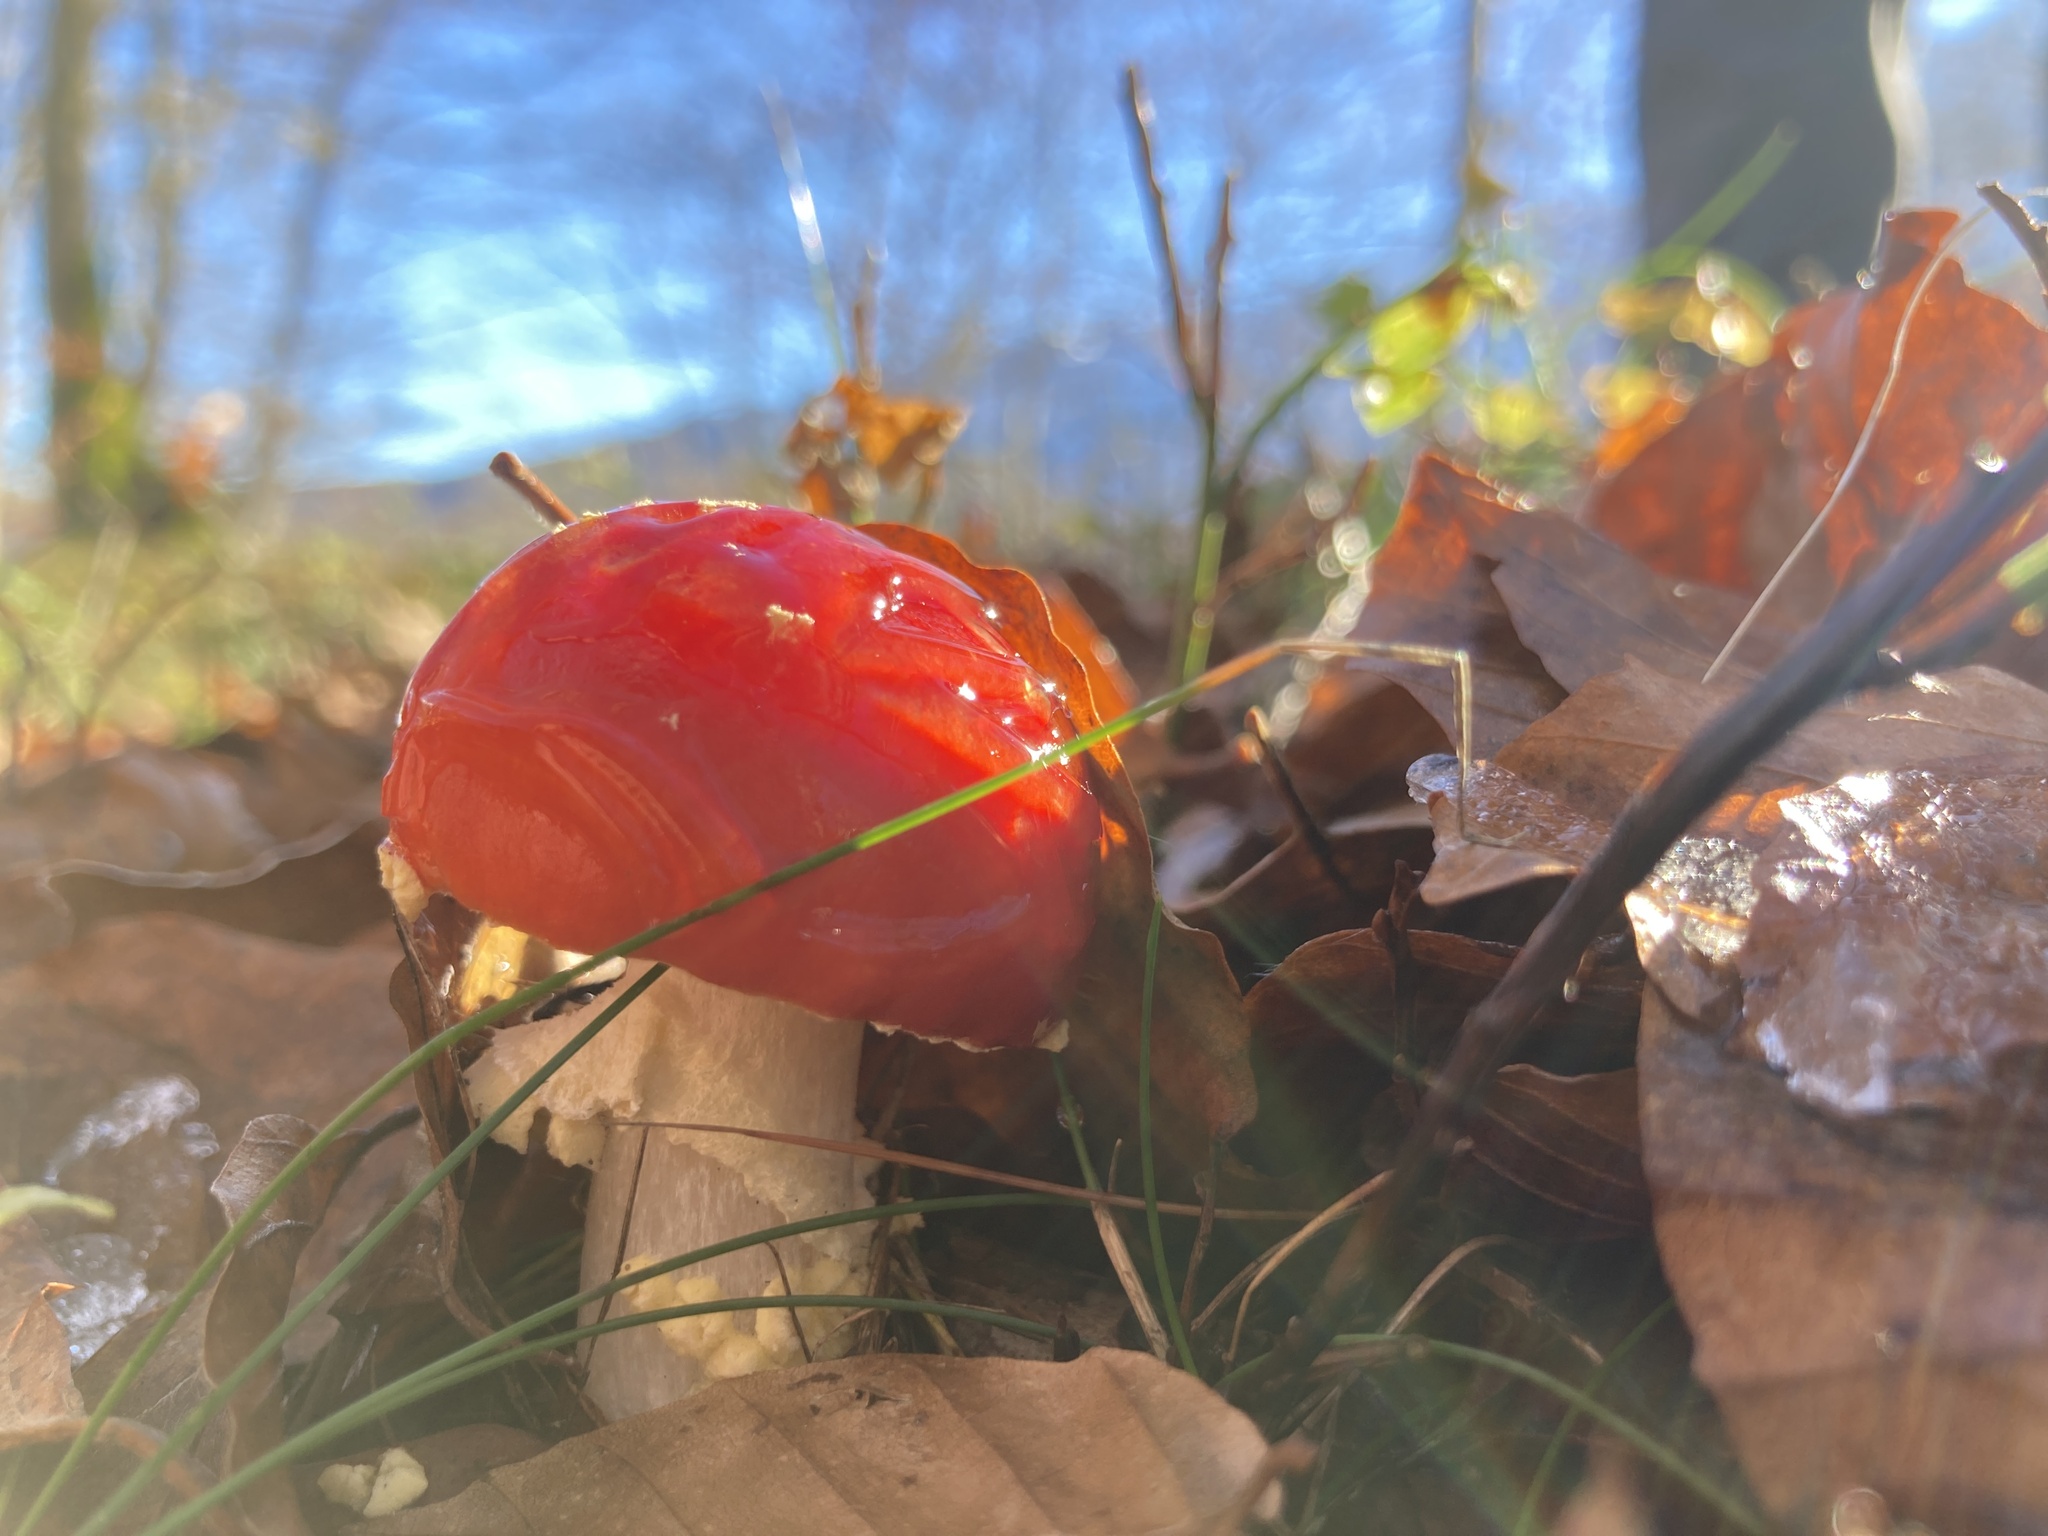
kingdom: Fungi
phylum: Basidiomycota
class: Agaricomycetes
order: Agaricales
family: Amanitaceae
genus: Amanita
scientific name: Amanita muscaria
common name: Fly agaric
